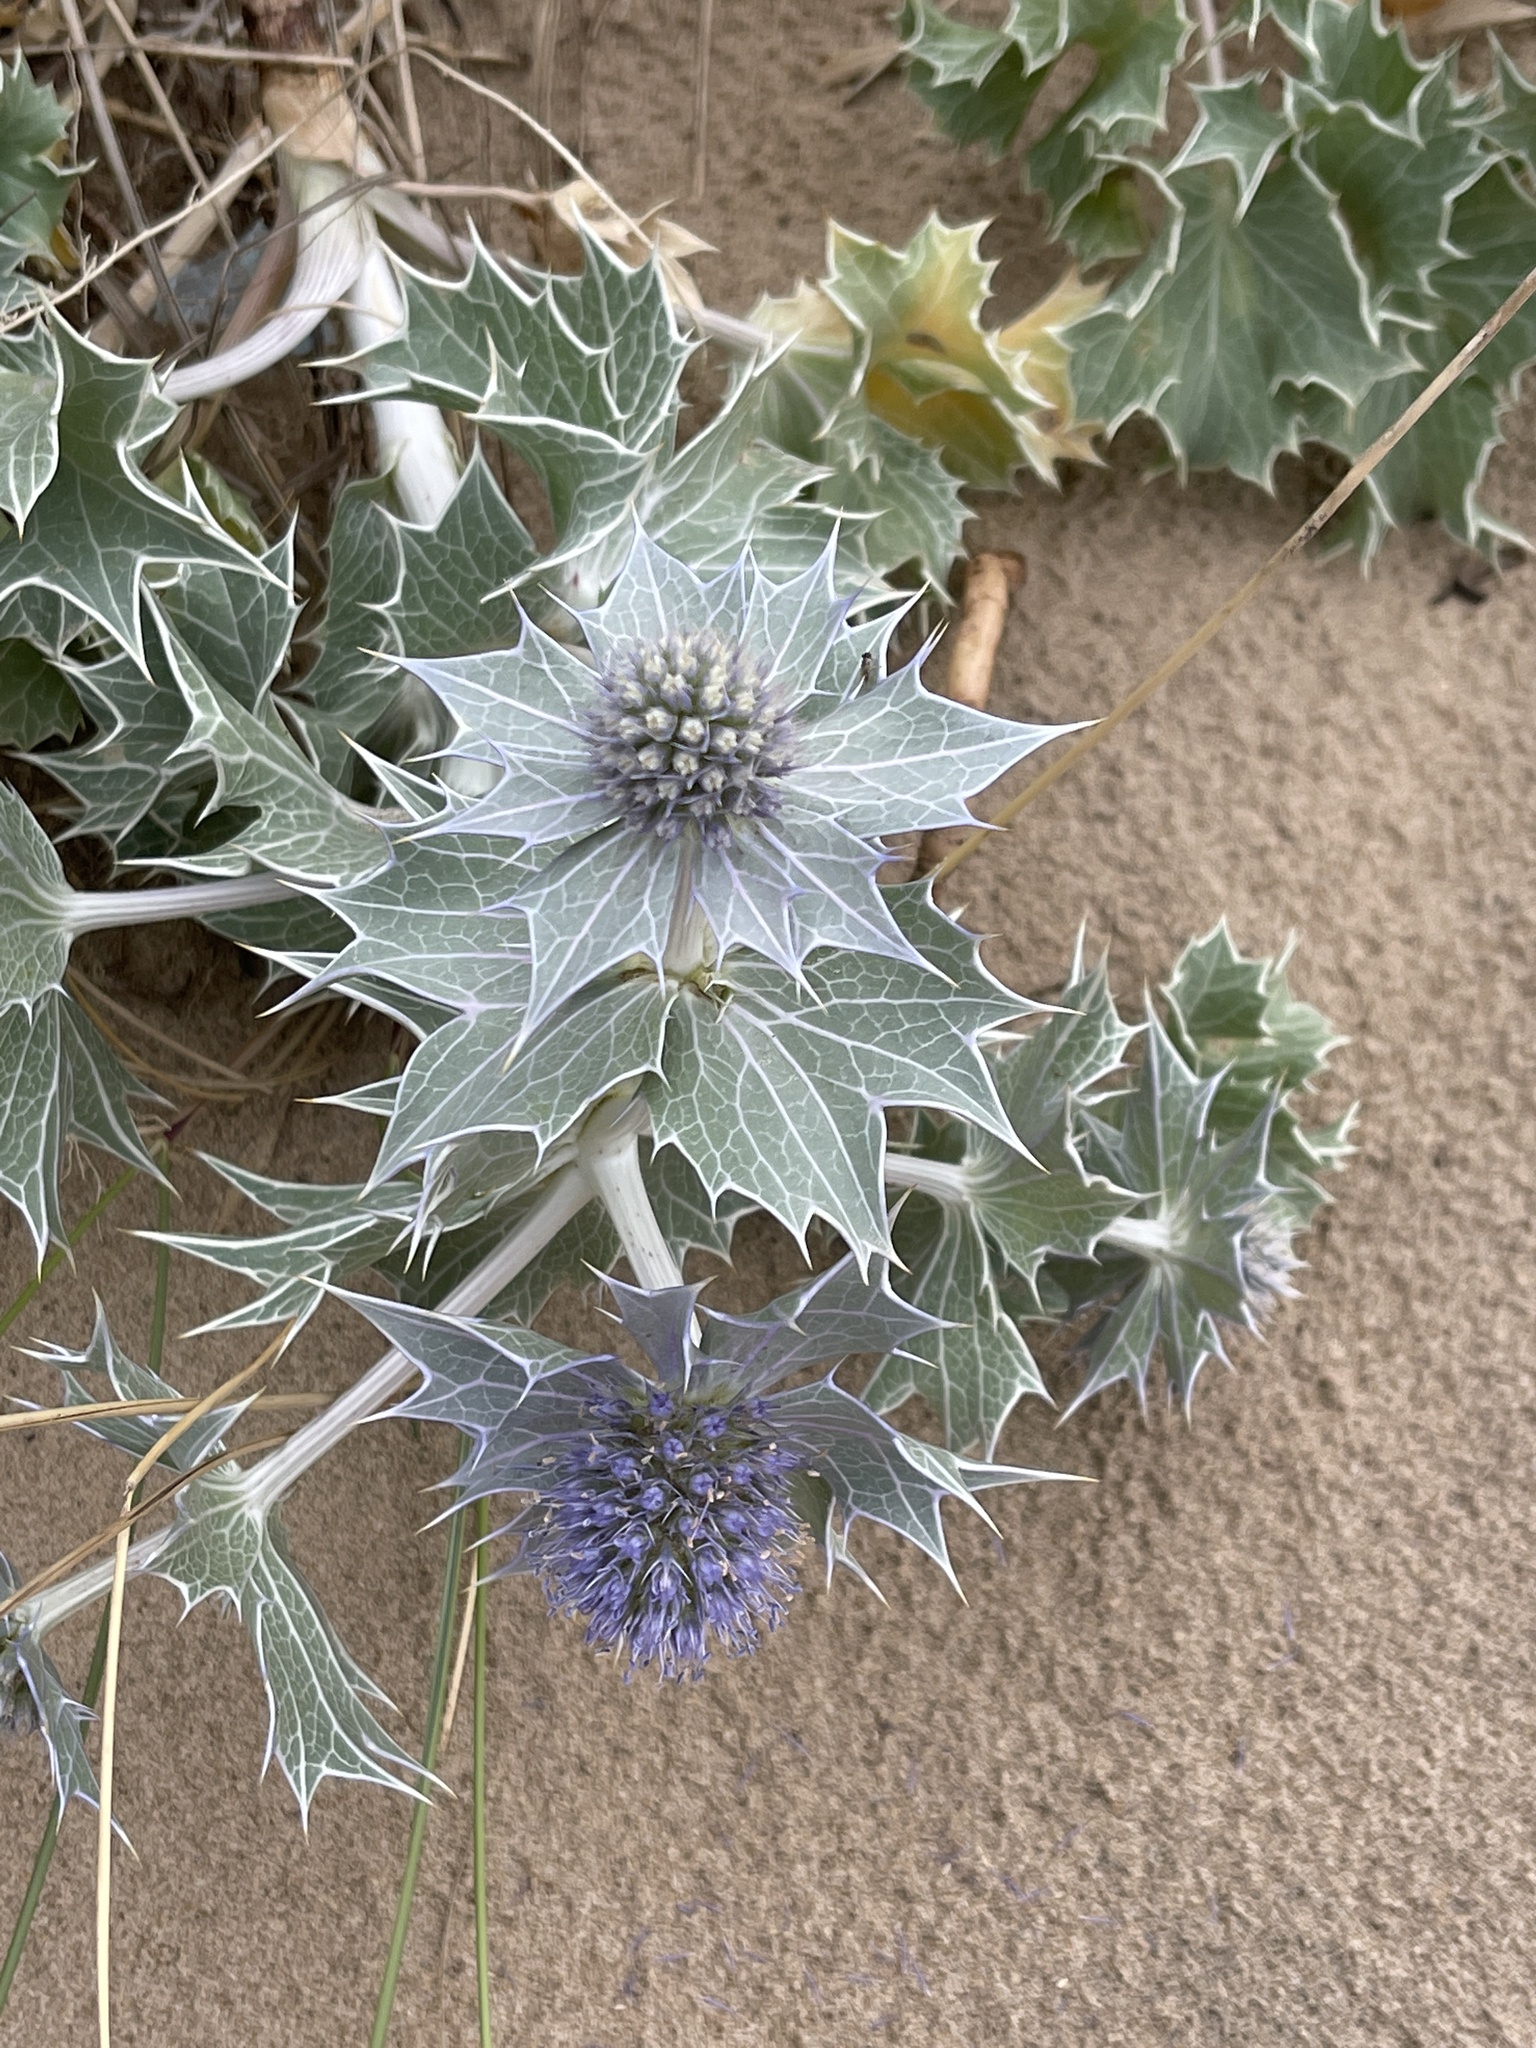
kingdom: Plantae
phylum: Tracheophyta
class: Magnoliopsida
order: Apiales
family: Apiaceae
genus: Eryngium
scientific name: Eryngium maritimum
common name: Sea-holly
